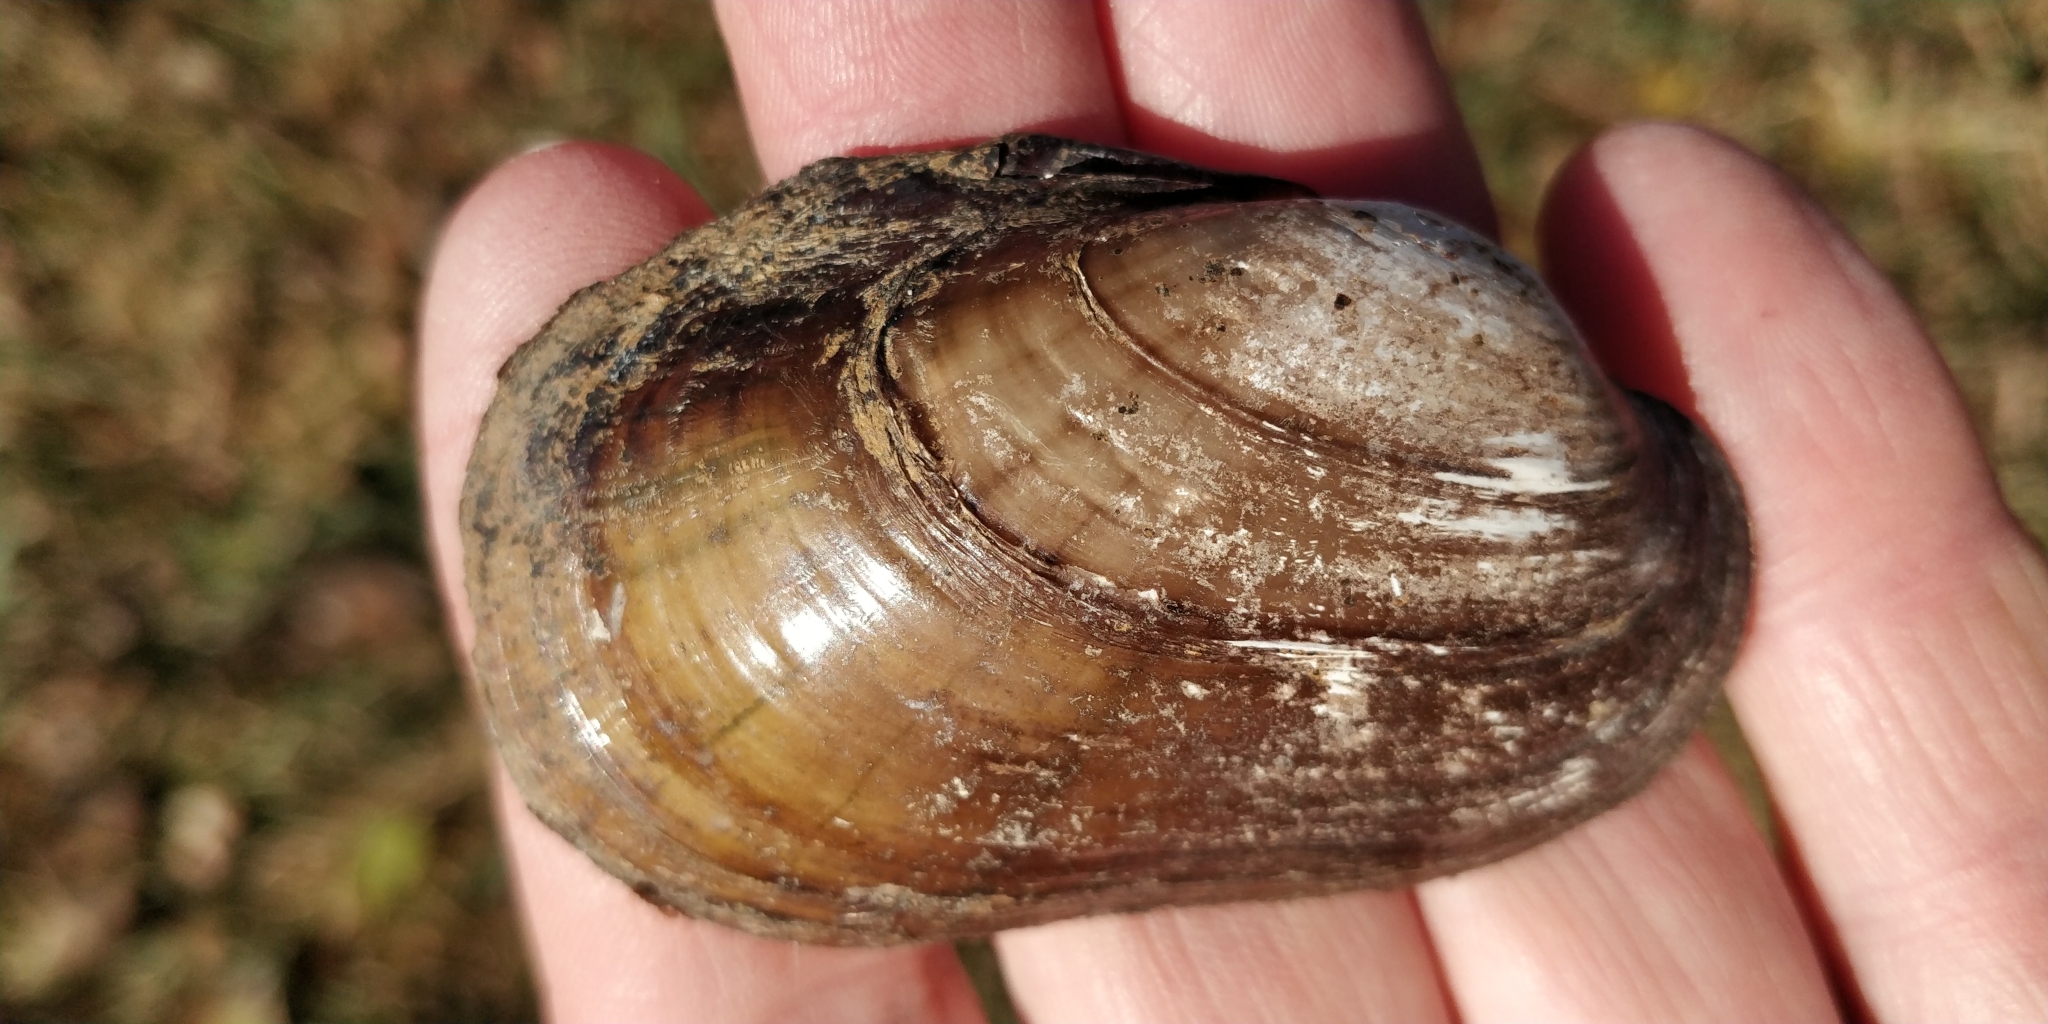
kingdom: Animalia
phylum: Mollusca
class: Bivalvia
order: Unionida
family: Unionidae
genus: Lampsilis
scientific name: Lampsilis siliquoidea
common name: Fatmucket
